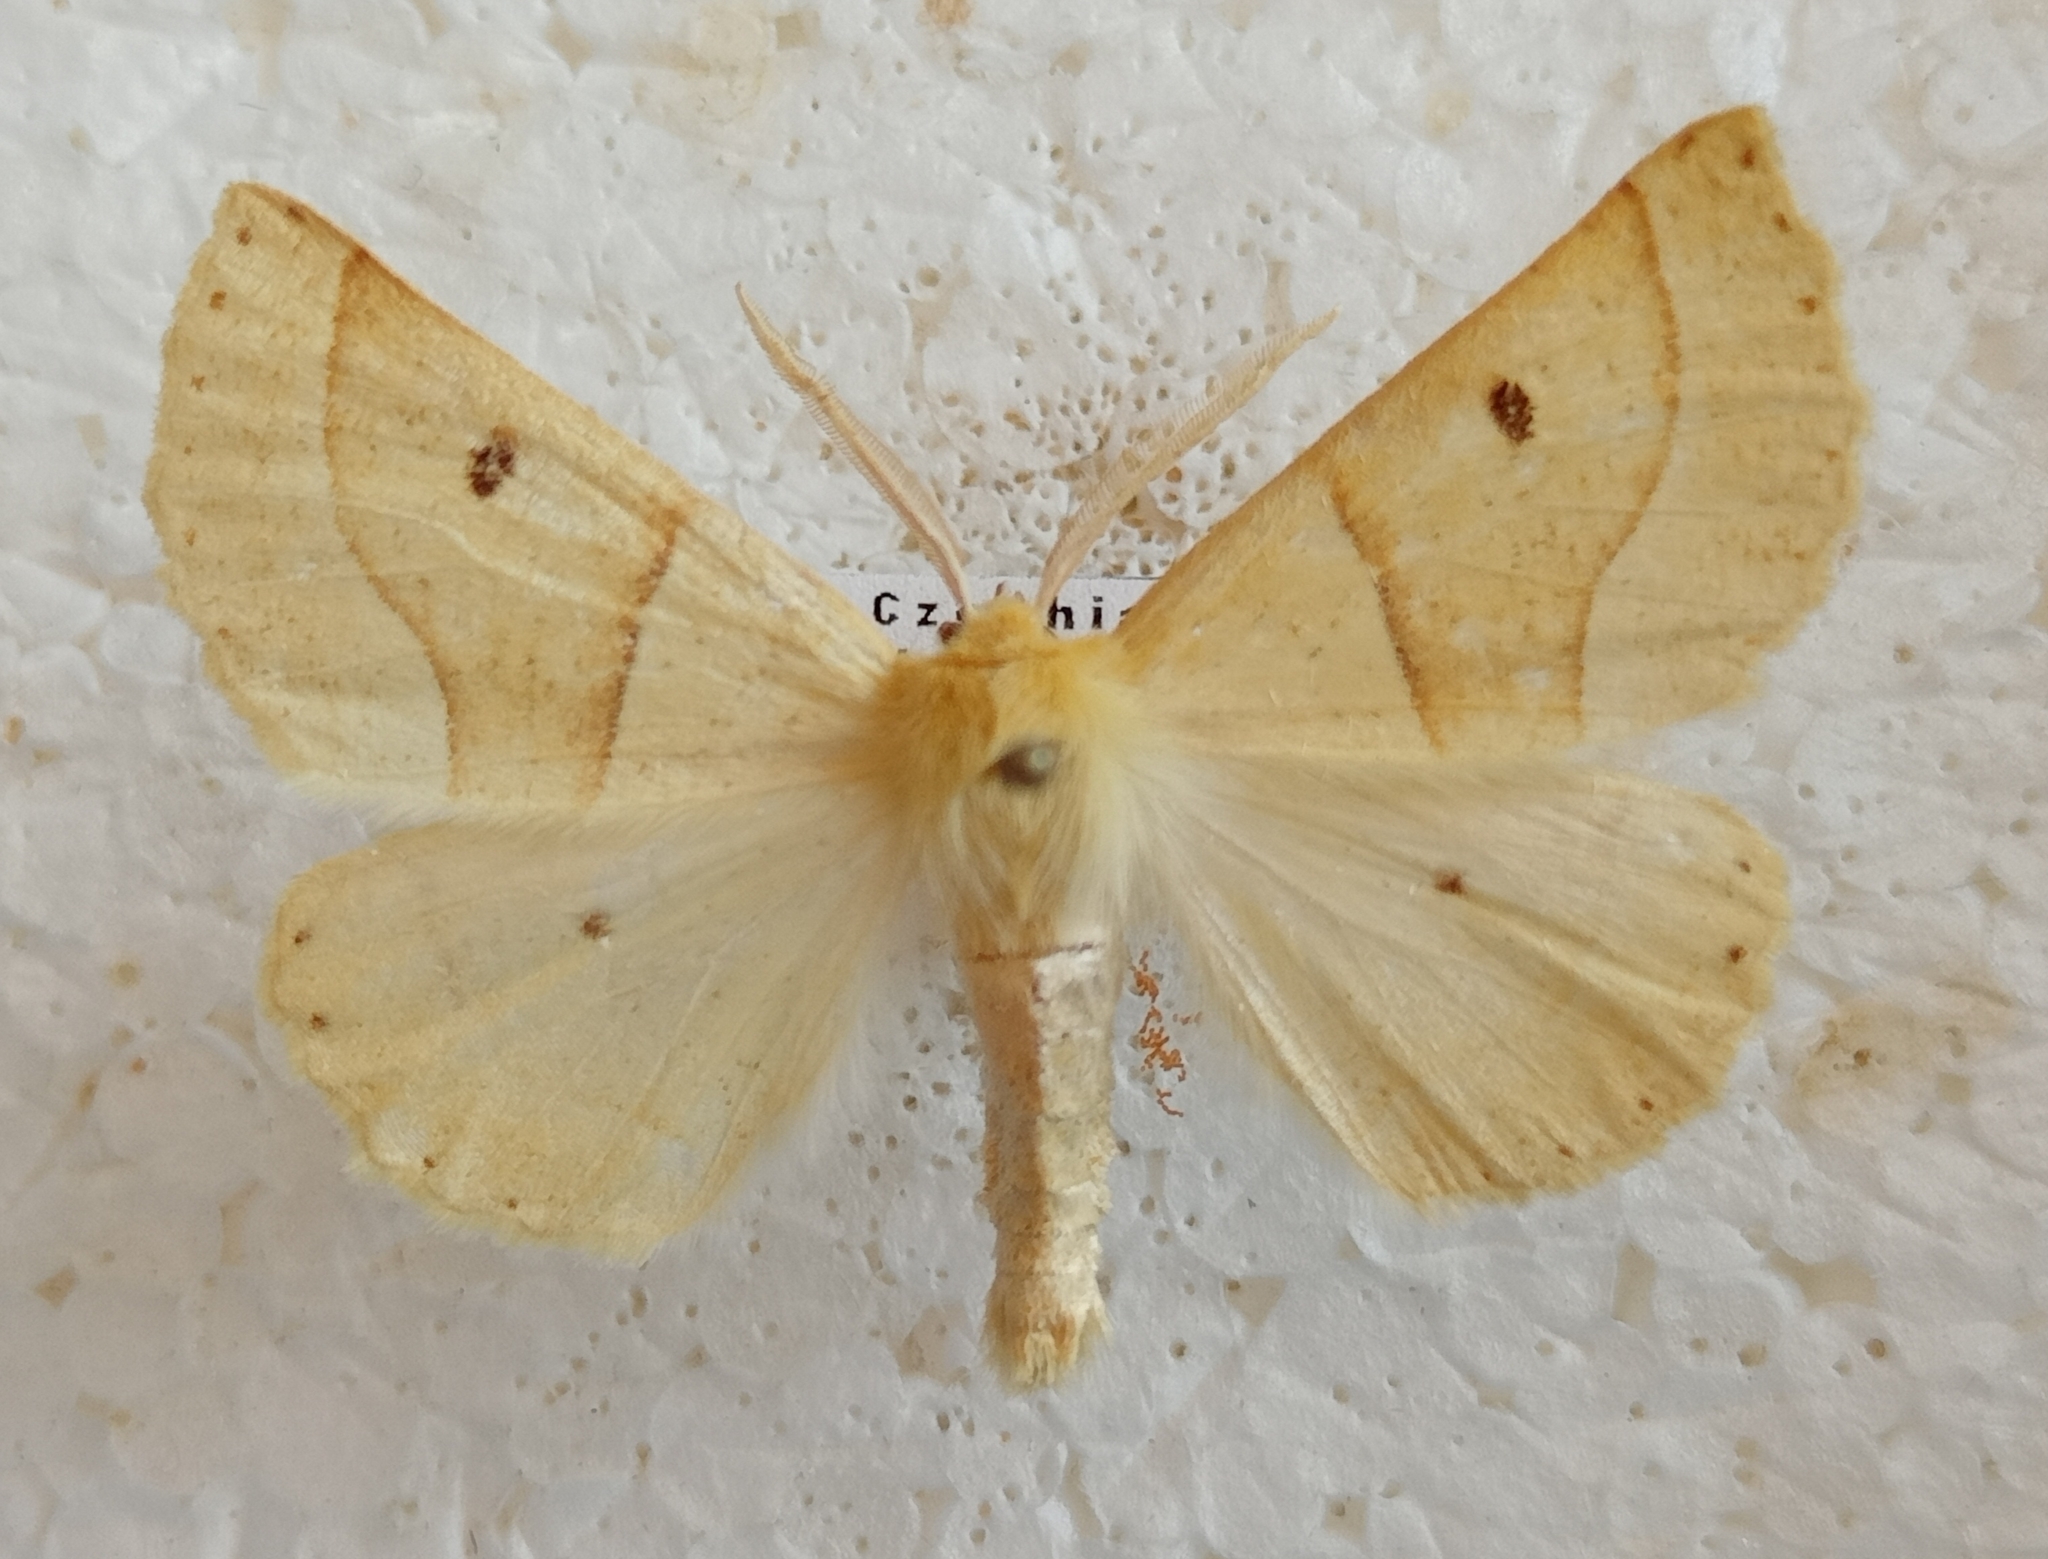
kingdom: Animalia
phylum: Arthropoda
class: Insecta
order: Lepidoptera
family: Geometridae
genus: Crocallis
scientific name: Crocallis elinguaria
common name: Scalloped oak
